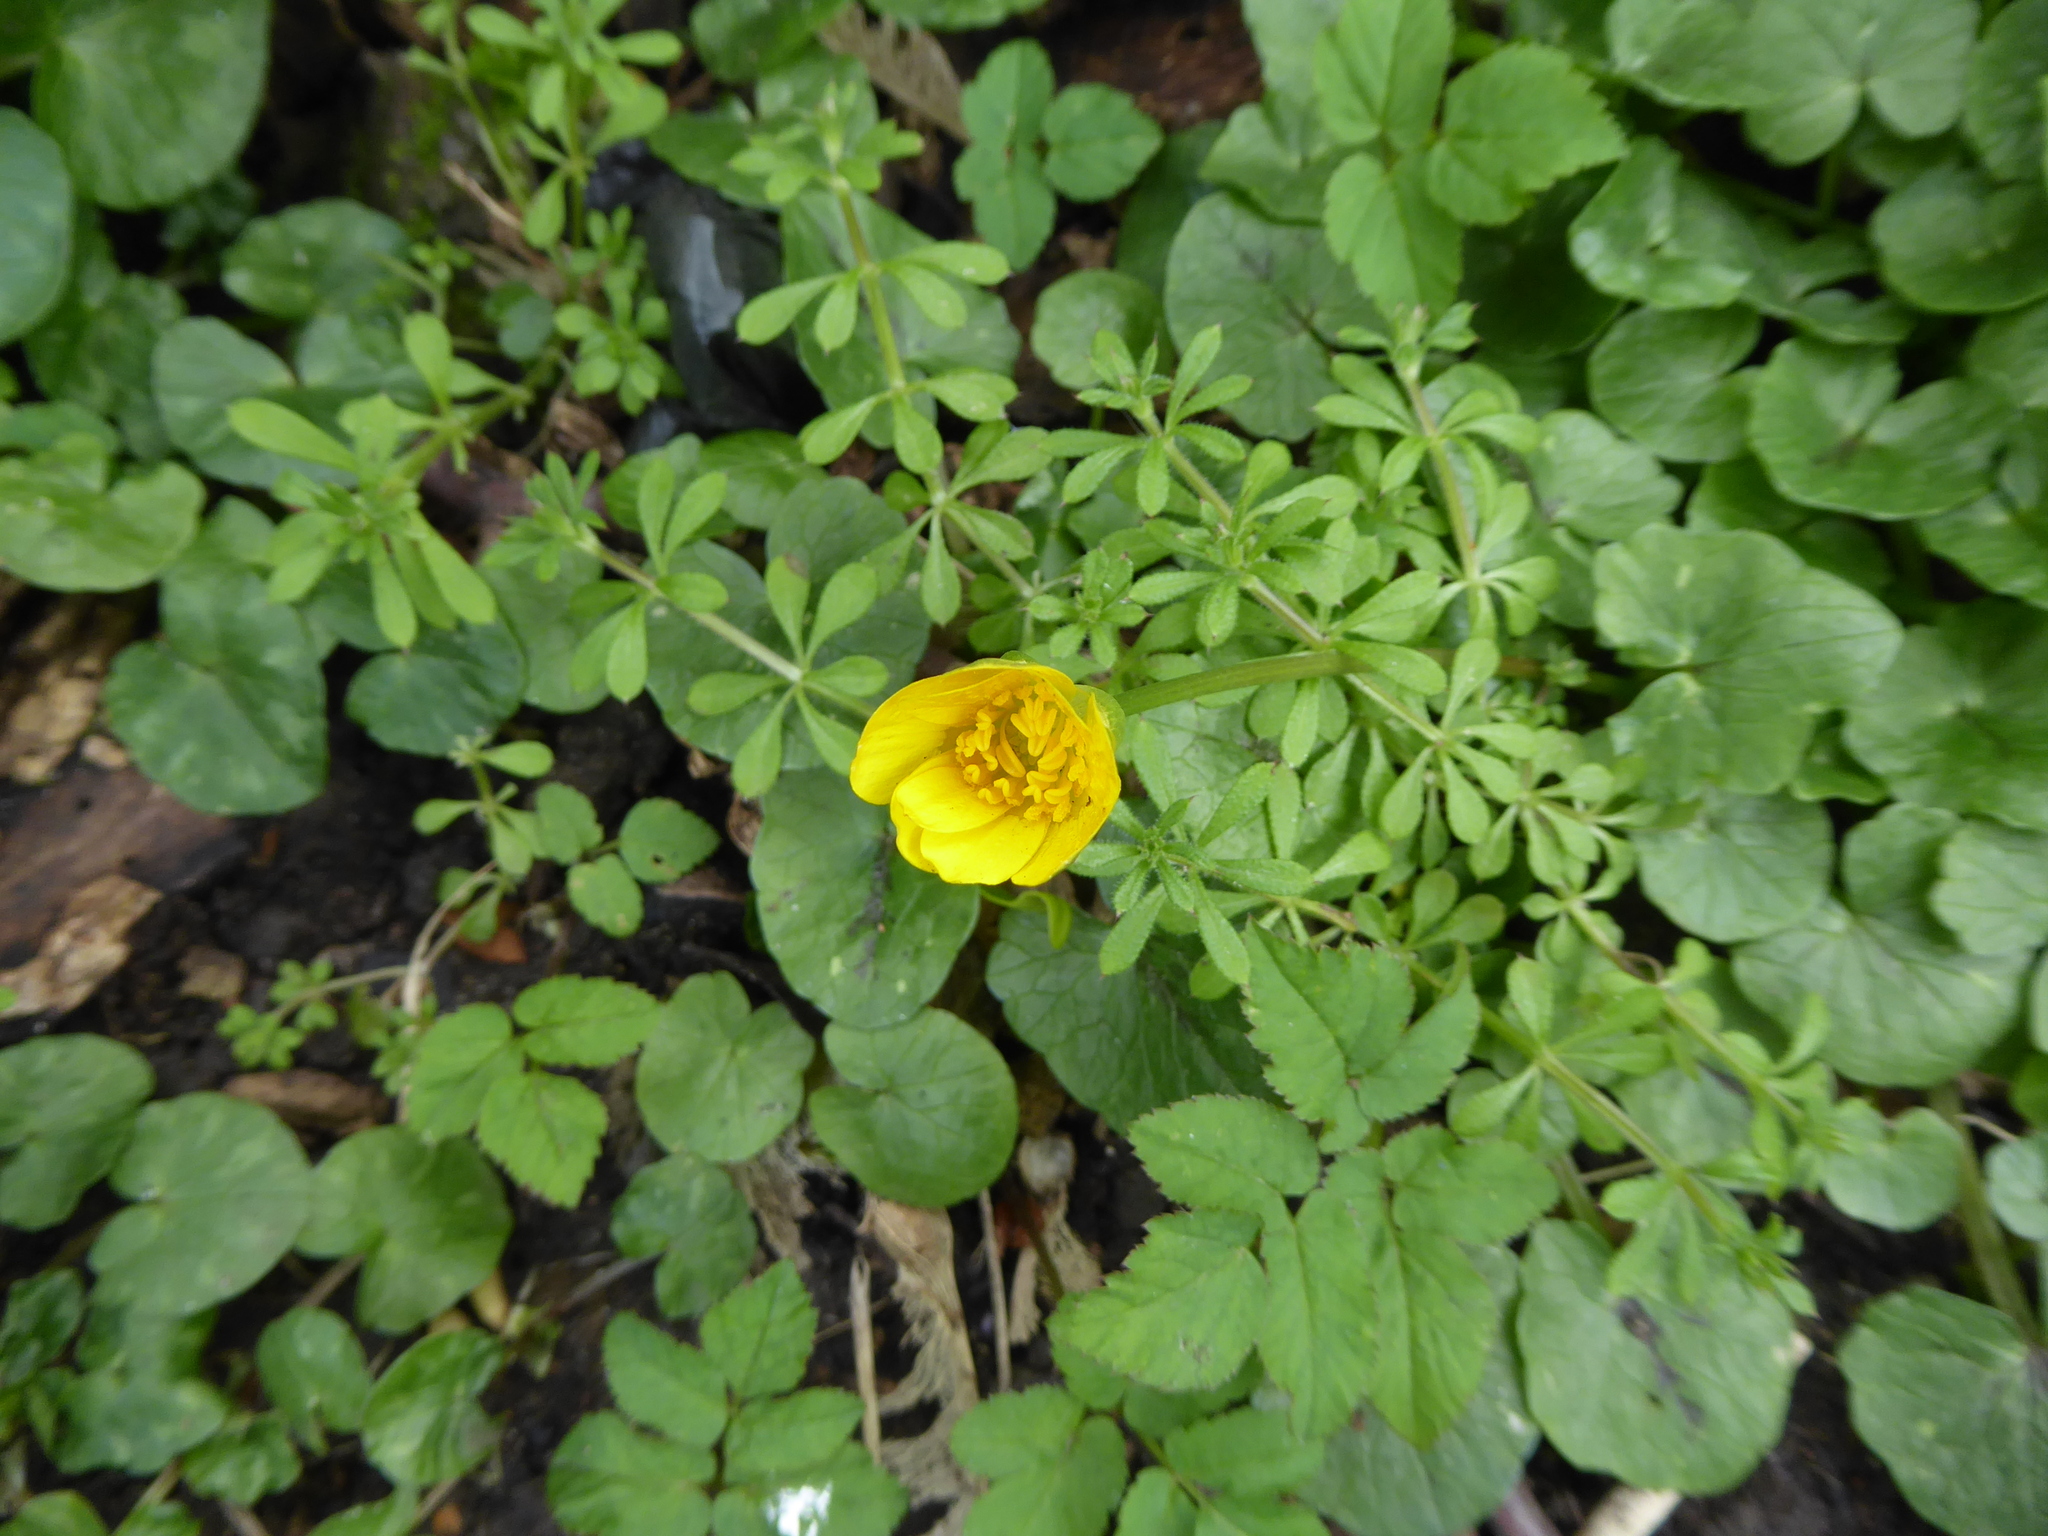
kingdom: Plantae
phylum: Tracheophyta
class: Magnoliopsida
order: Ranunculales
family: Ranunculaceae
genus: Ficaria
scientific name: Ficaria verna
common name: Lesser celandine
